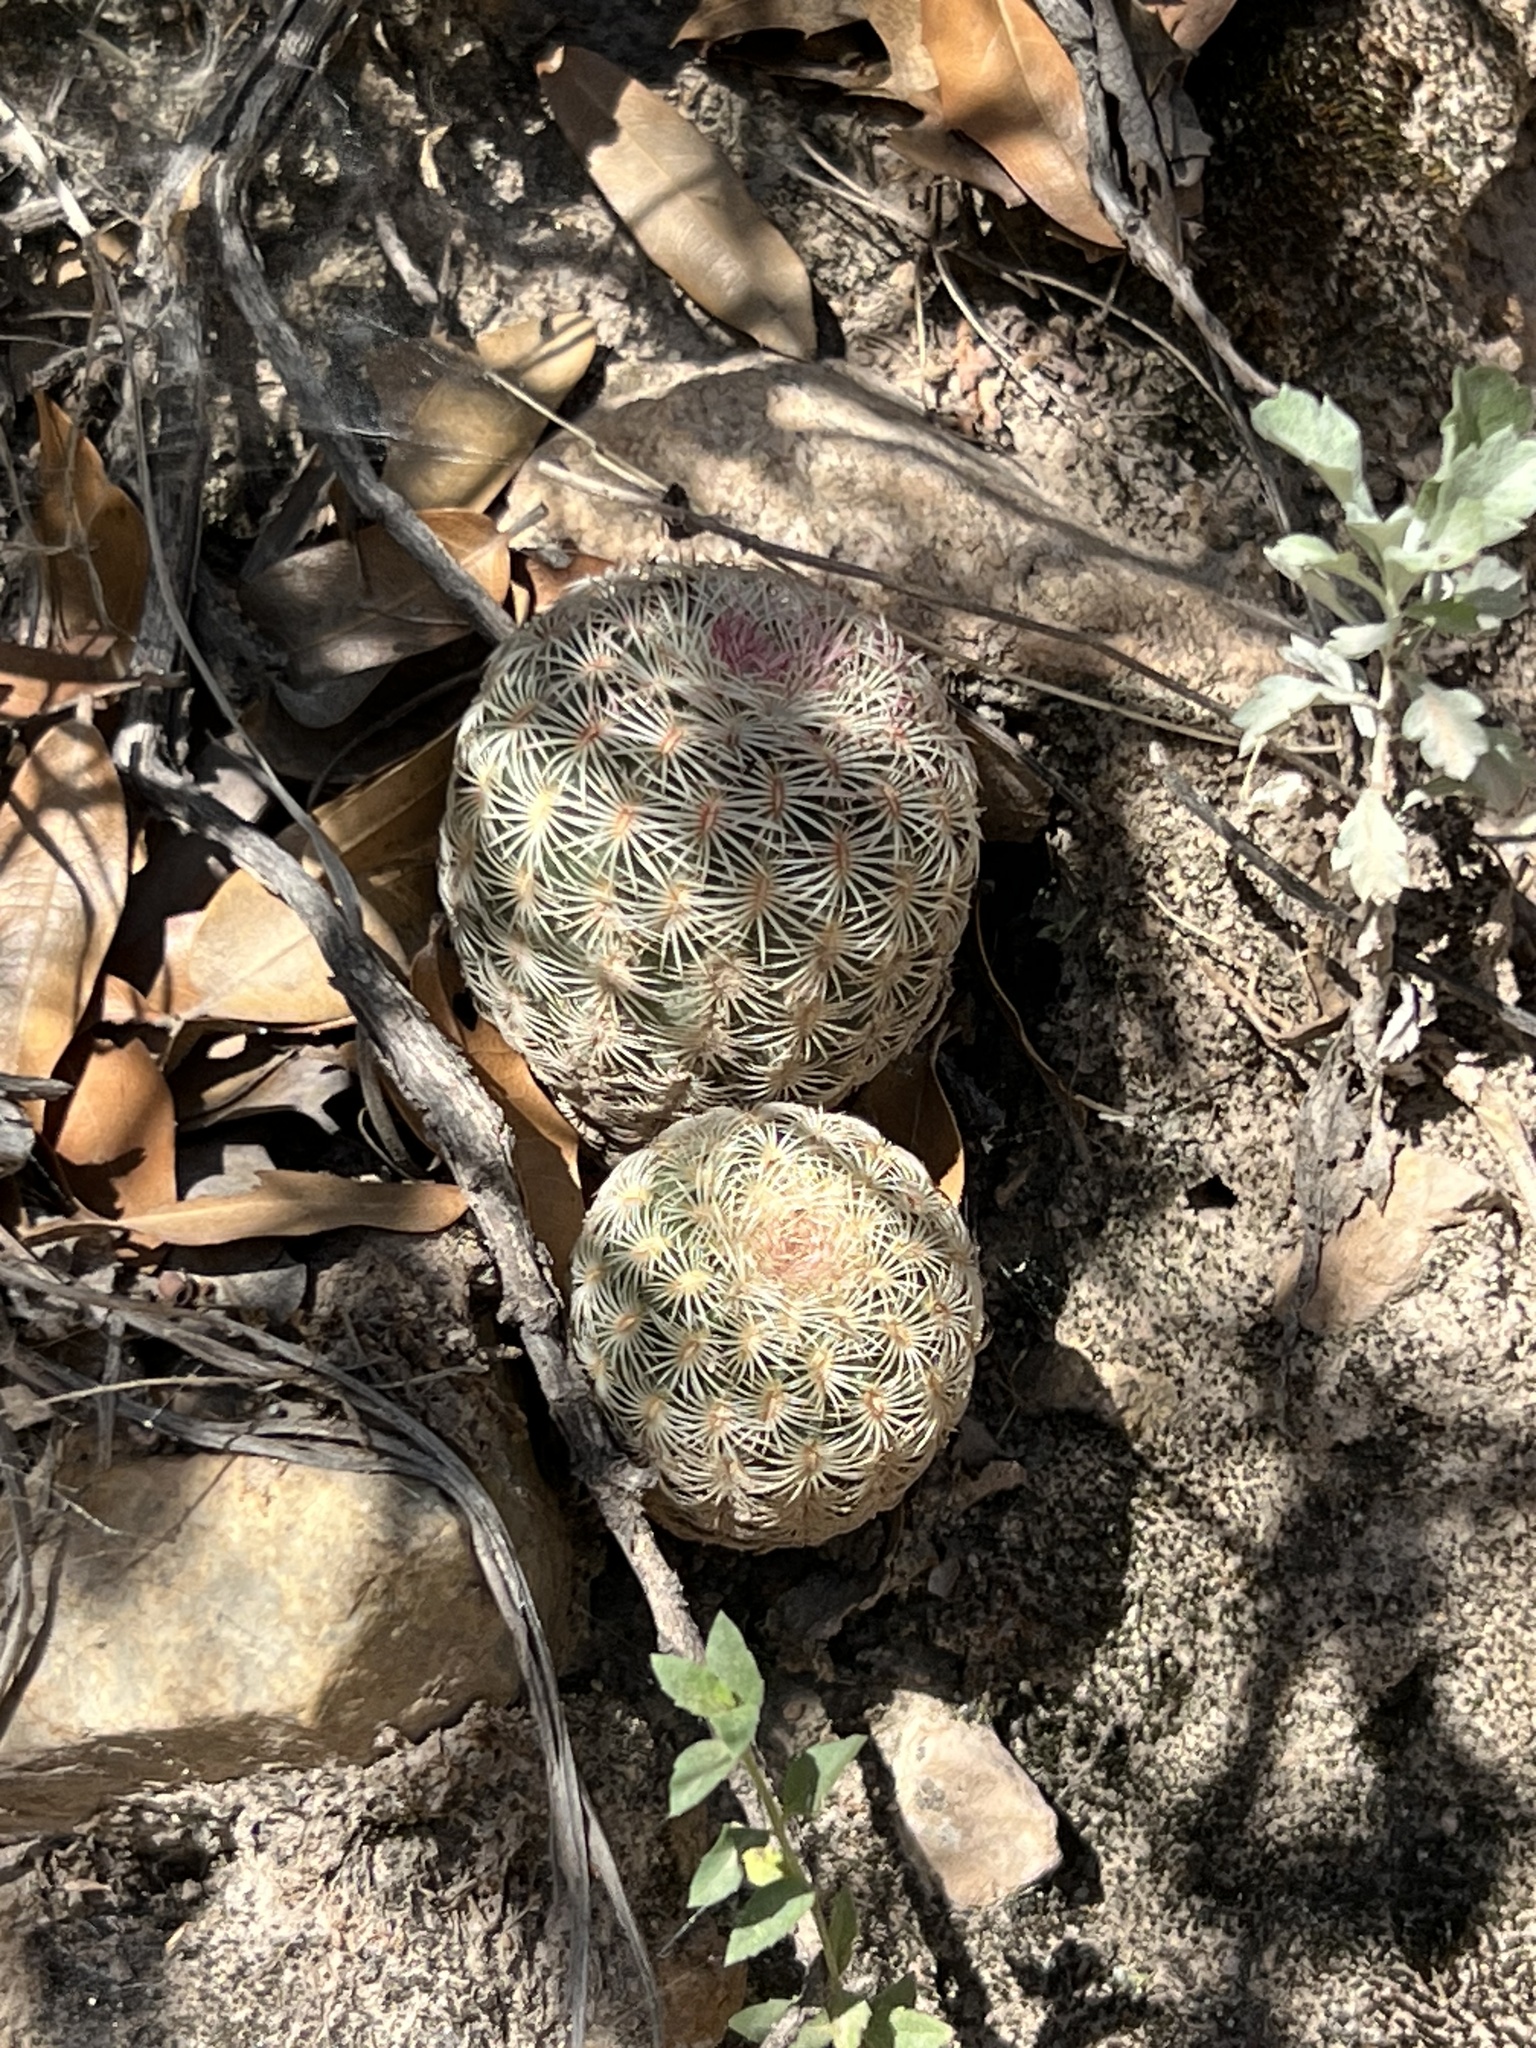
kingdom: Plantae
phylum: Tracheophyta
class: Magnoliopsida
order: Caryophyllales
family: Cactaceae
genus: Echinocereus
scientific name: Echinocereus rigidissimus
